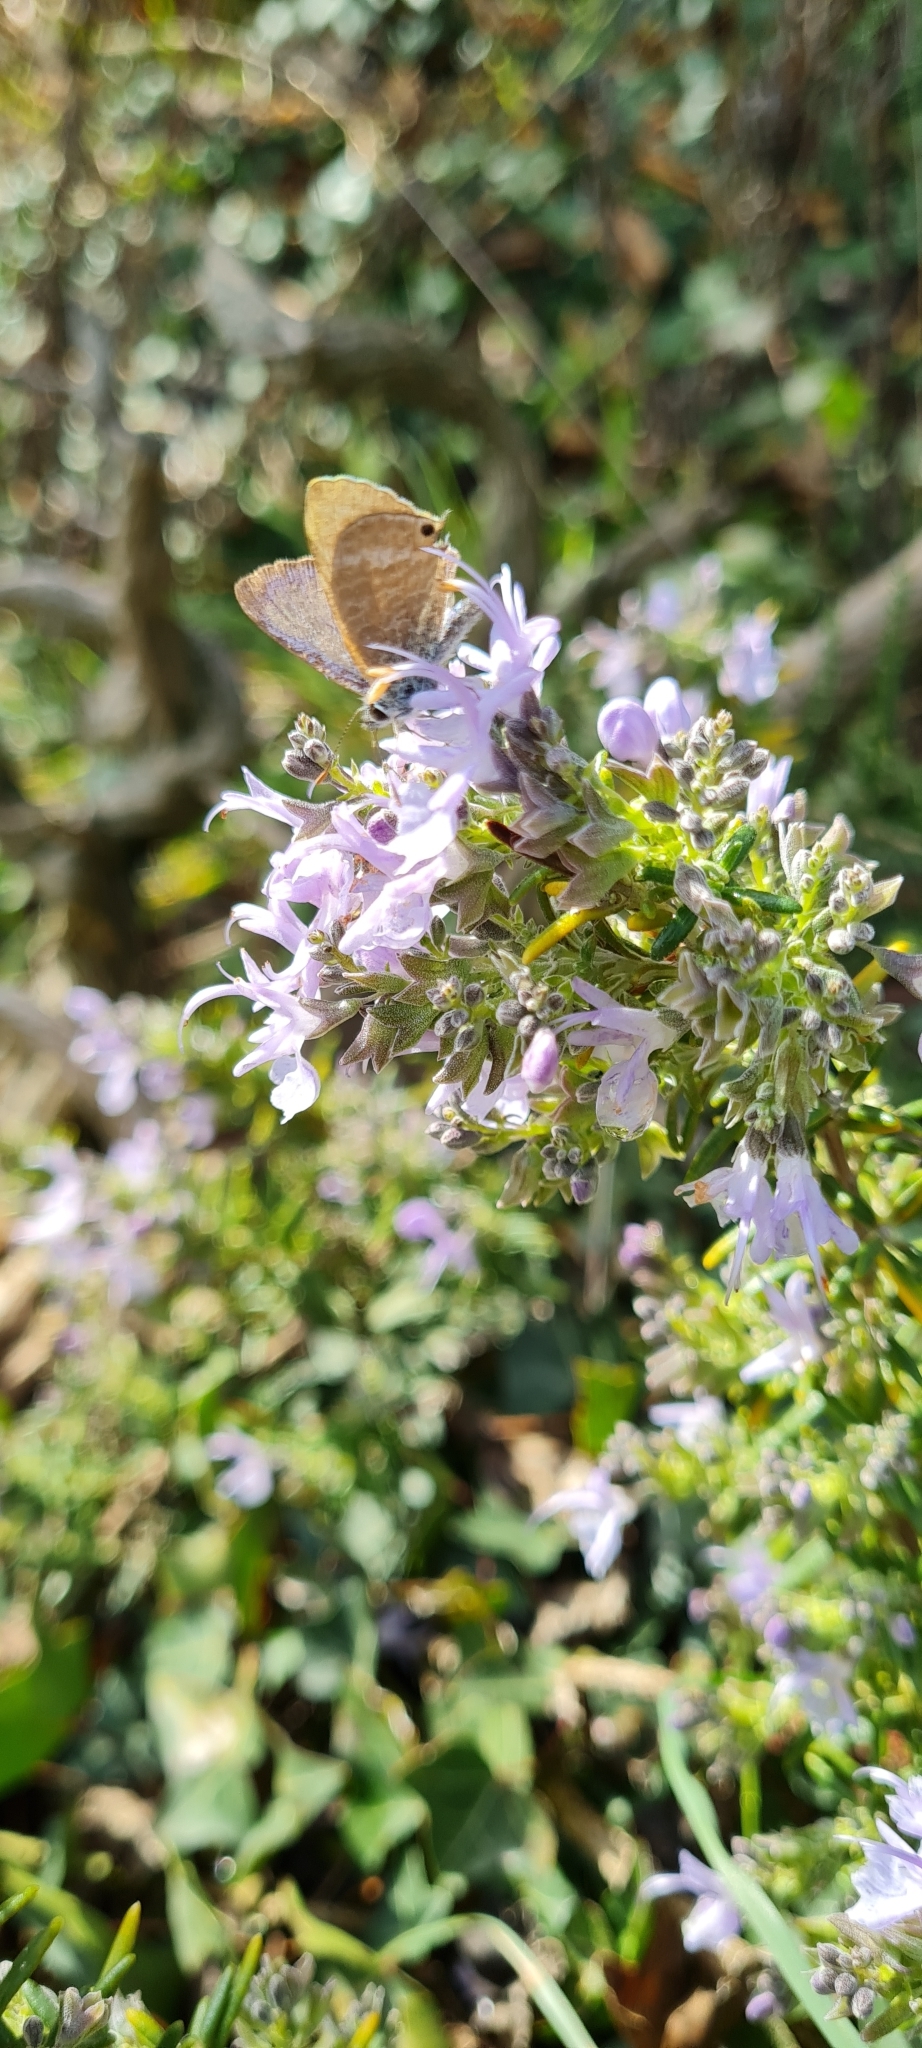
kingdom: Animalia
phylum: Arthropoda
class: Insecta
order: Lepidoptera
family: Lycaenidae
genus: Lampides
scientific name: Lampides boeticus
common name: Long-tailed blue
